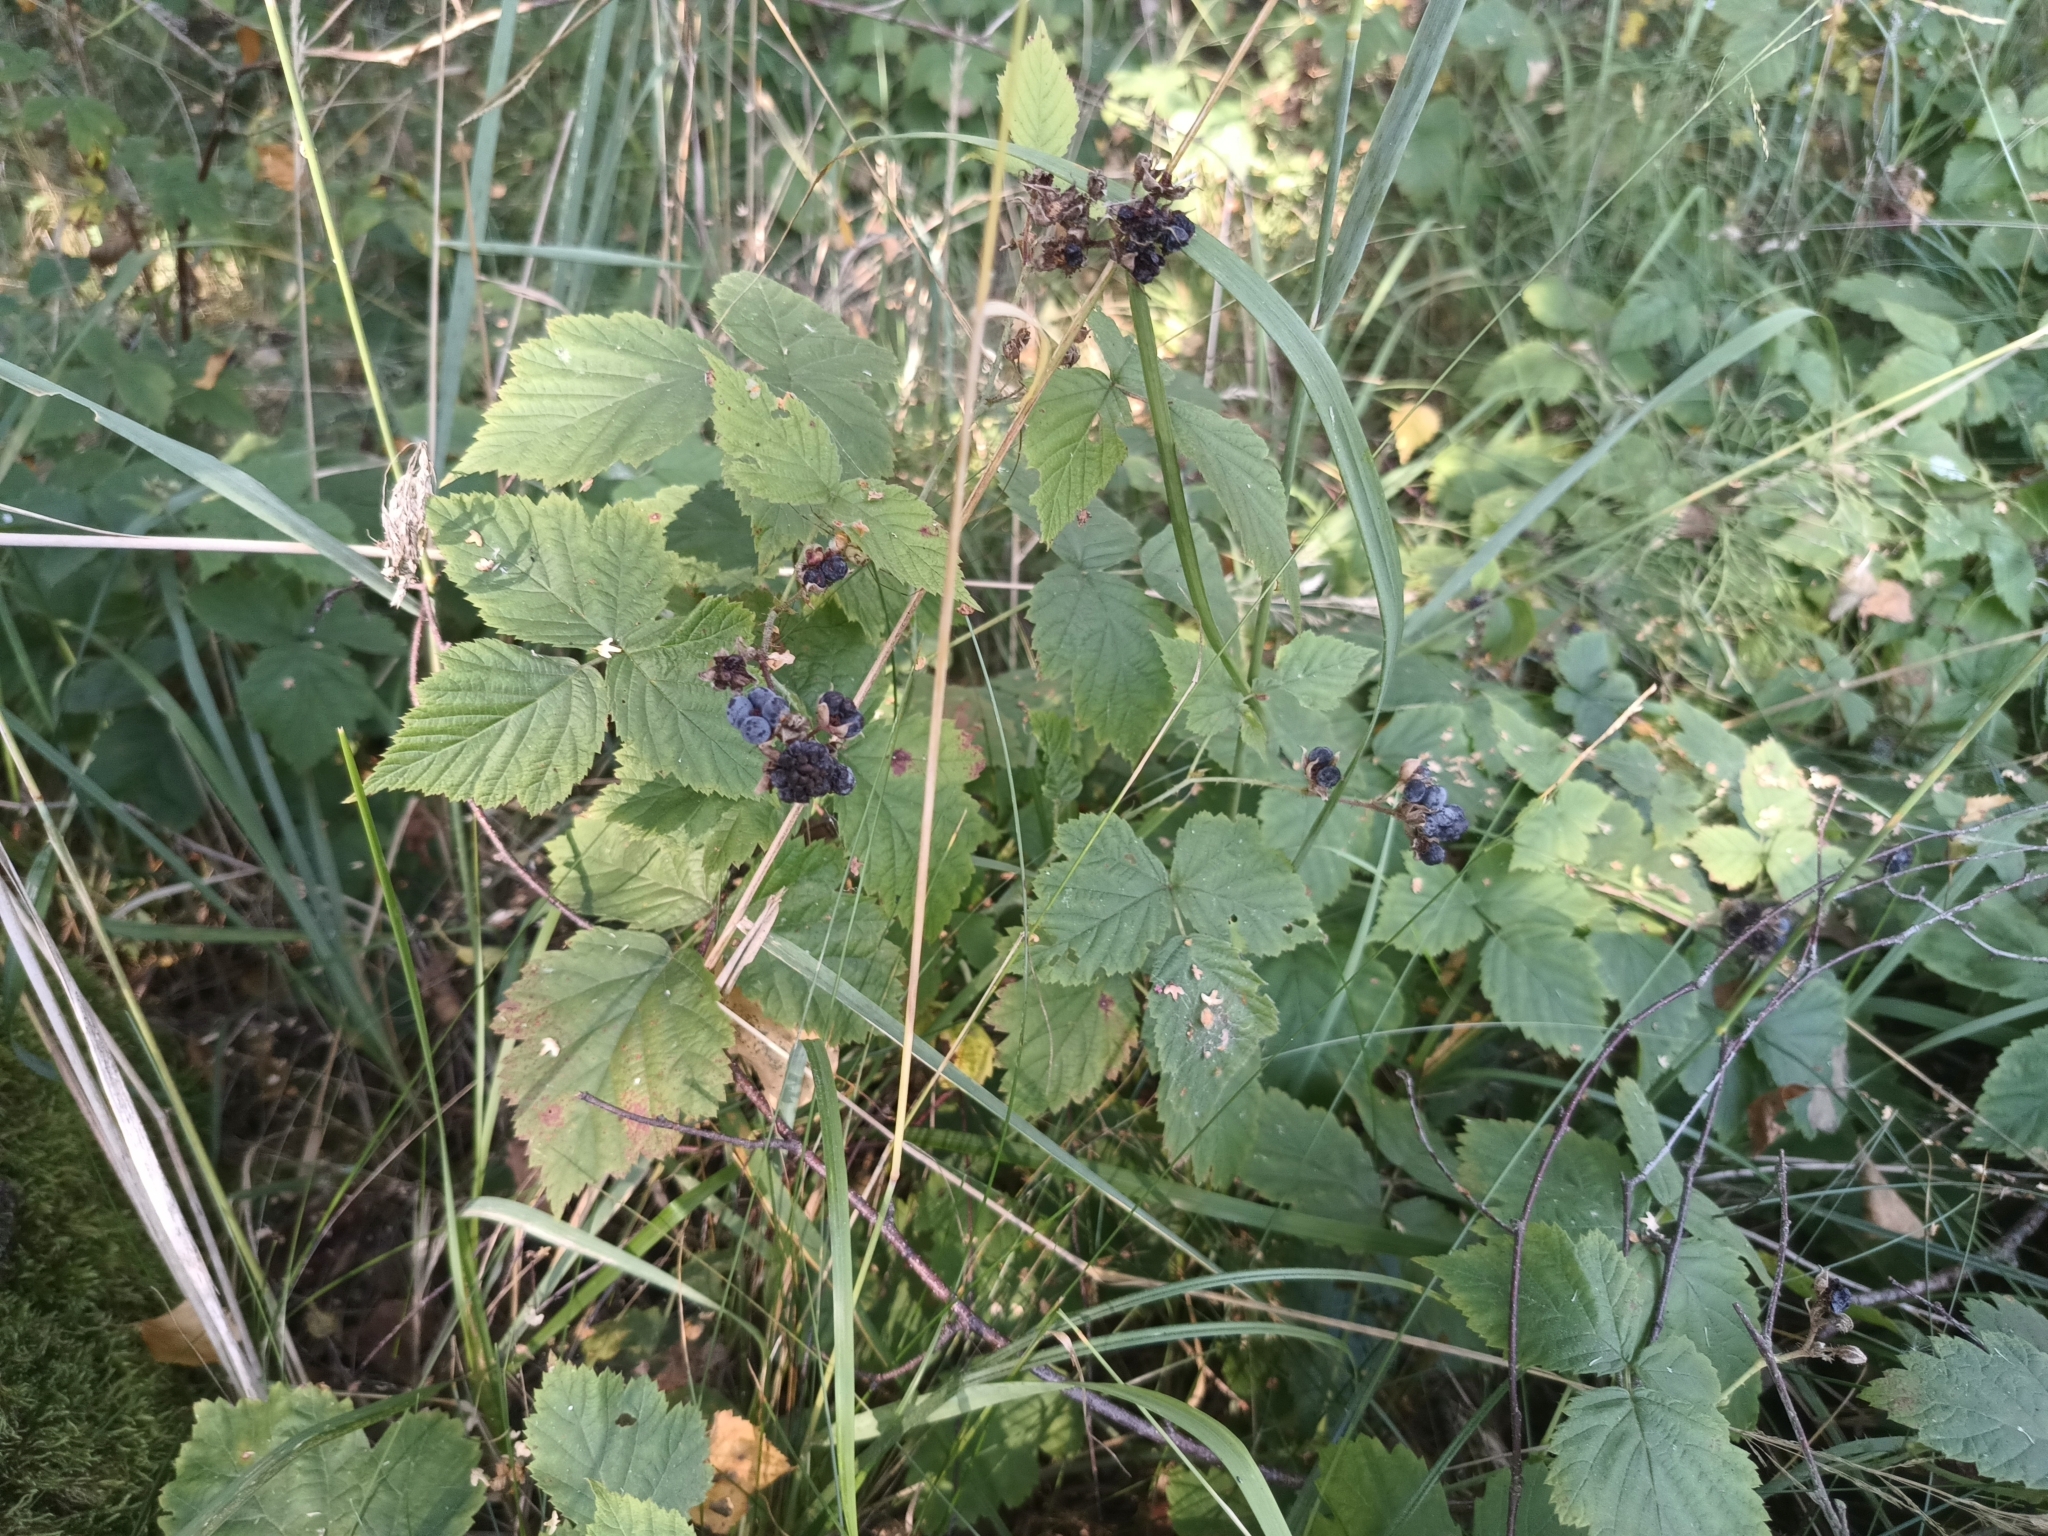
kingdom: Plantae
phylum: Tracheophyta
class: Magnoliopsida
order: Rosales
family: Rosaceae
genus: Rubus
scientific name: Rubus caesius
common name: Dewberry
